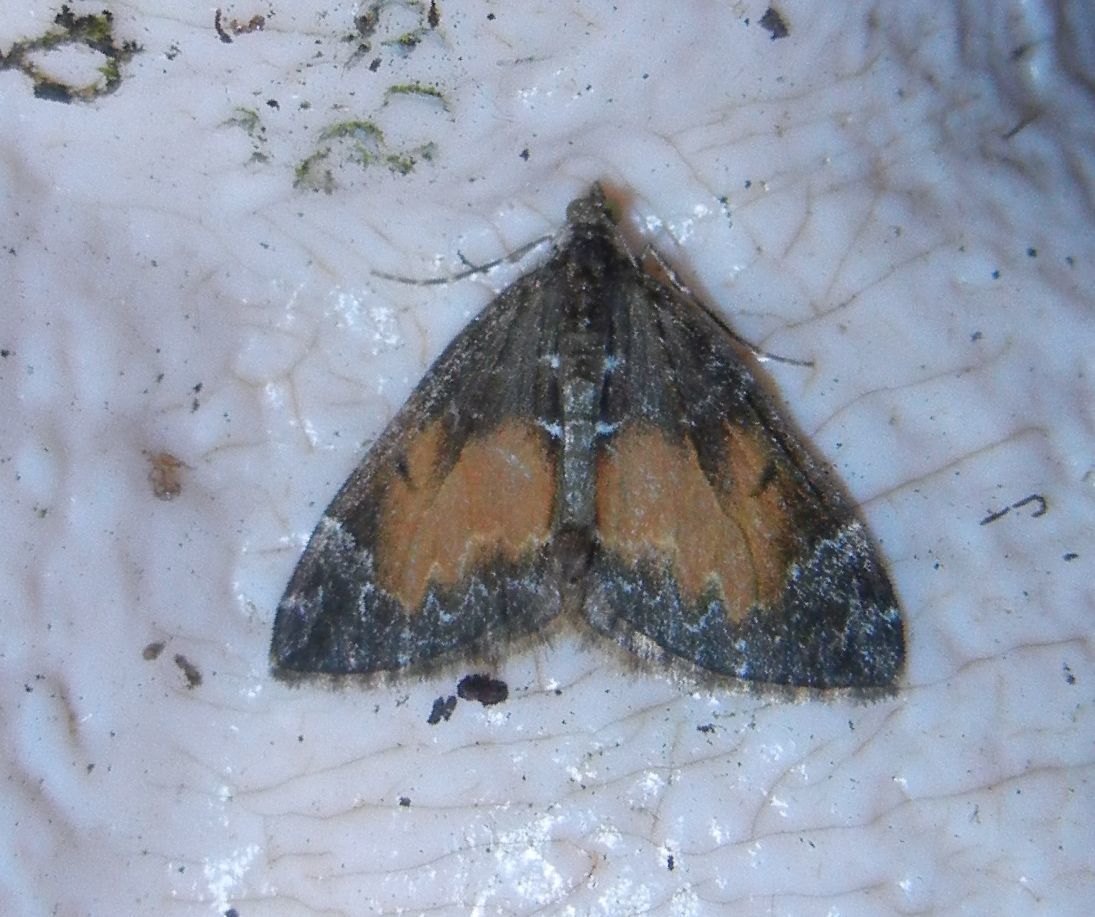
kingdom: Animalia
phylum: Arthropoda
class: Insecta
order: Lepidoptera
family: Geometridae
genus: Dysstroma
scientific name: Dysstroma truncata
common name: Common marbled carpet
